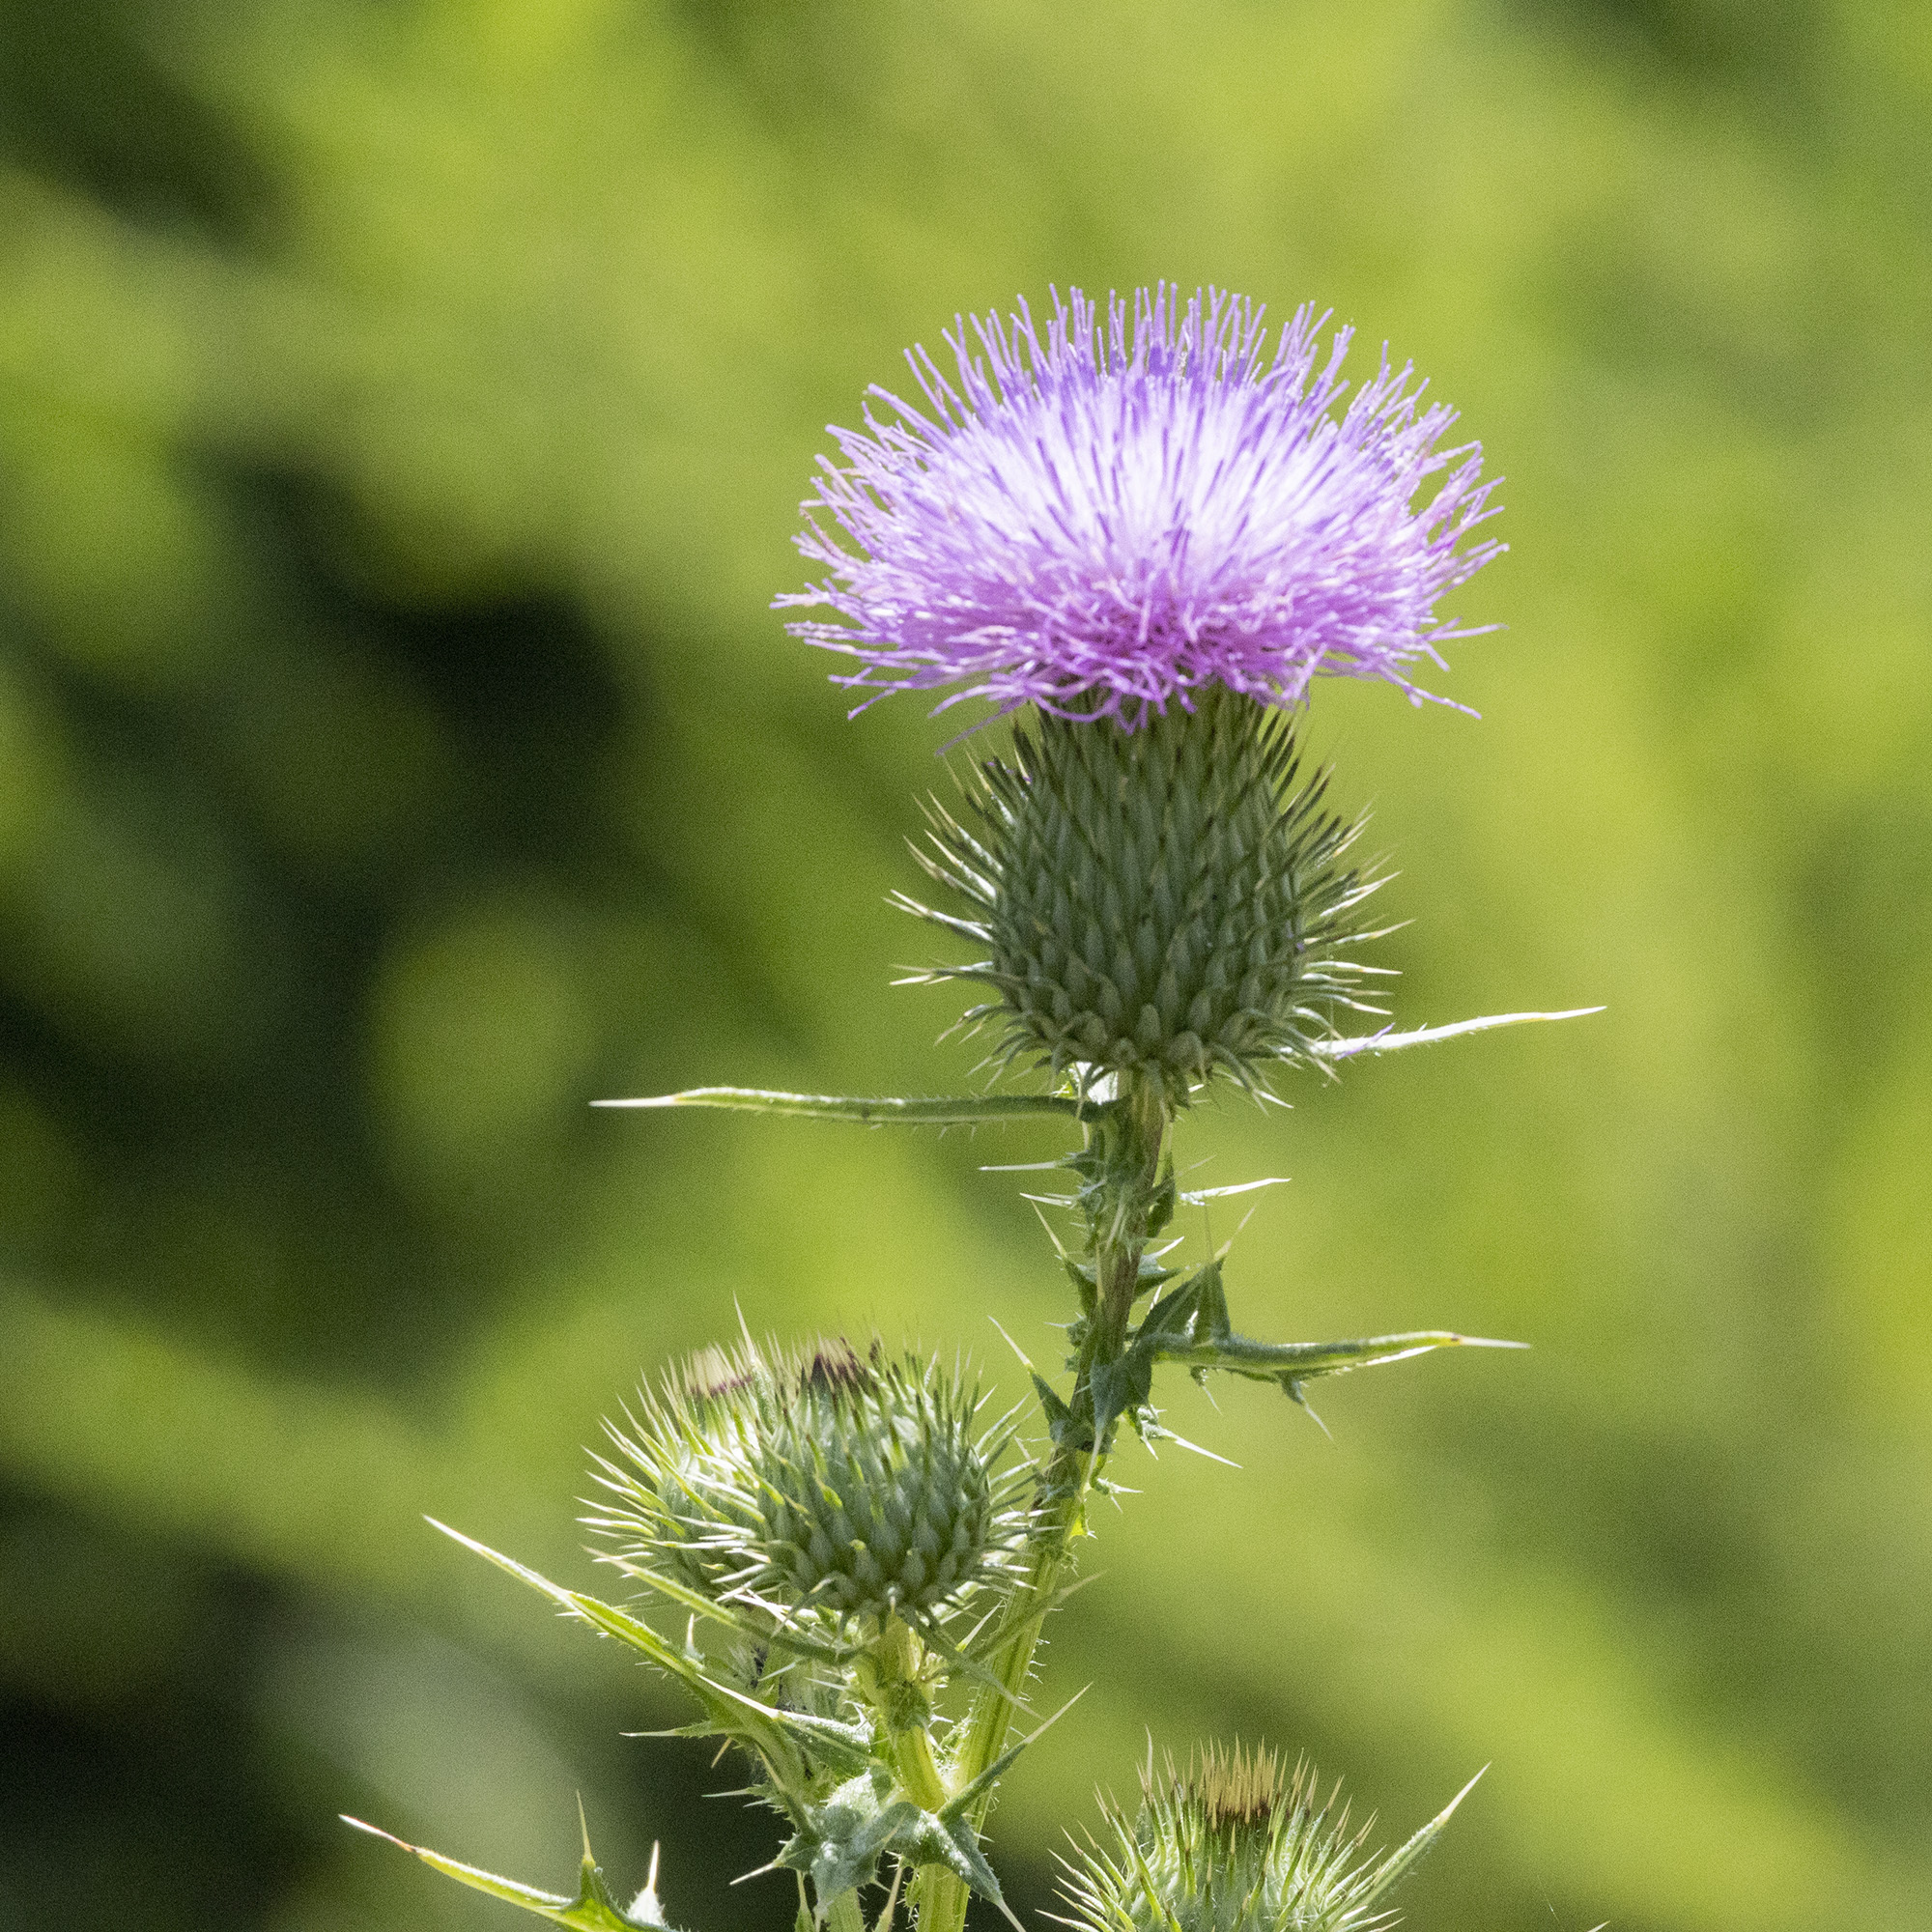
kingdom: Plantae
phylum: Tracheophyta
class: Magnoliopsida
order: Asterales
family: Asteraceae
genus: Cirsium
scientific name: Cirsium vulgare
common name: Bull thistle
